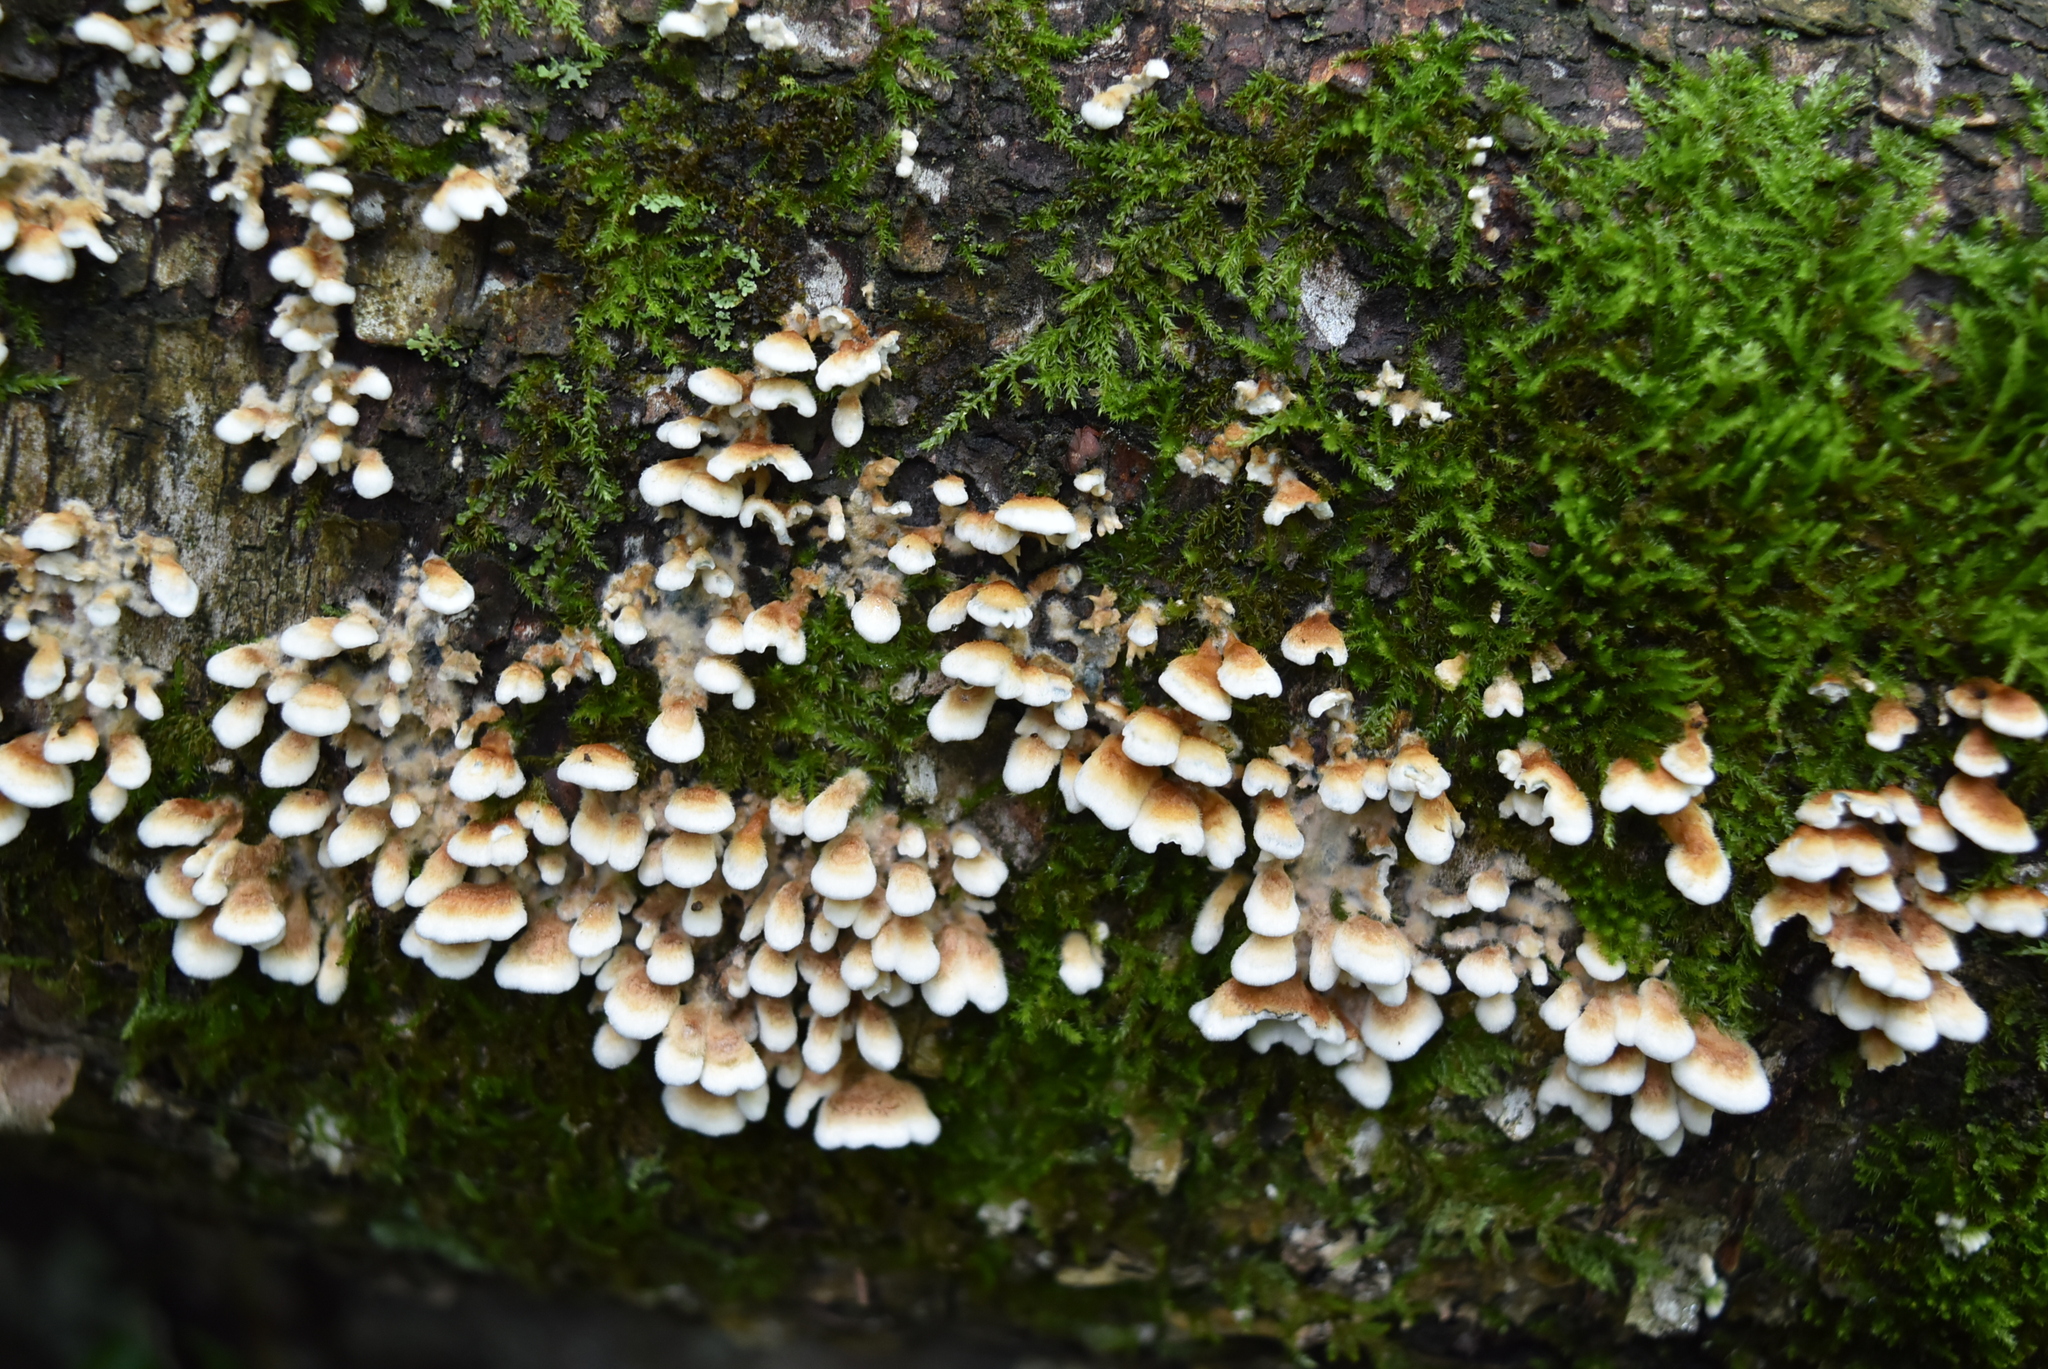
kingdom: Fungi
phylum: Basidiomycota
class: Agaricomycetes
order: Amylocorticiales
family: Amylocorticiaceae
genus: Plicaturopsis
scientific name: Plicaturopsis crispa
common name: Crimped gill
